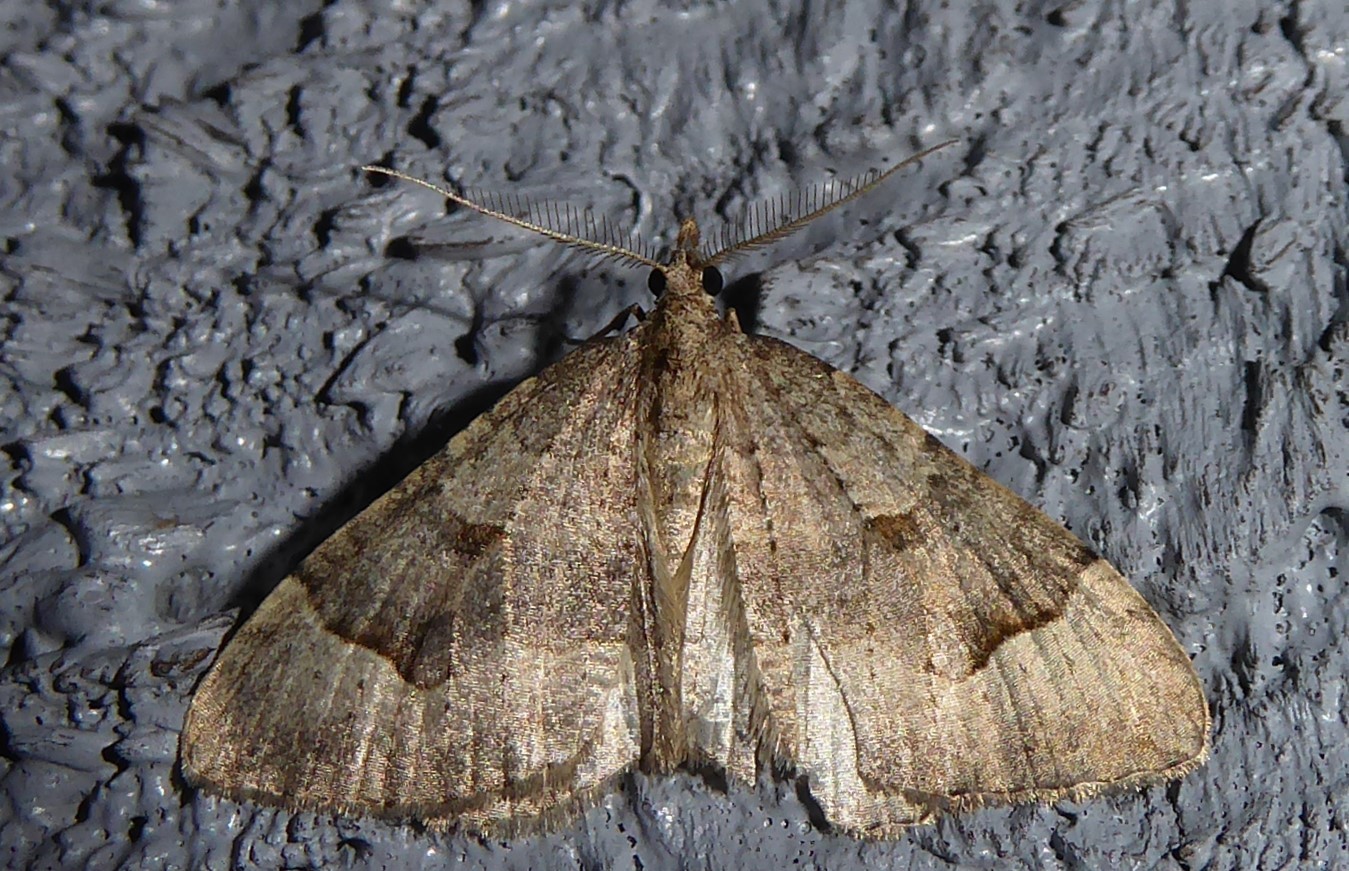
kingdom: Animalia
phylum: Arthropoda
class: Insecta
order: Lepidoptera
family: Geometridae
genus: Epyaxa
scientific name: Epyaxa rosearia
